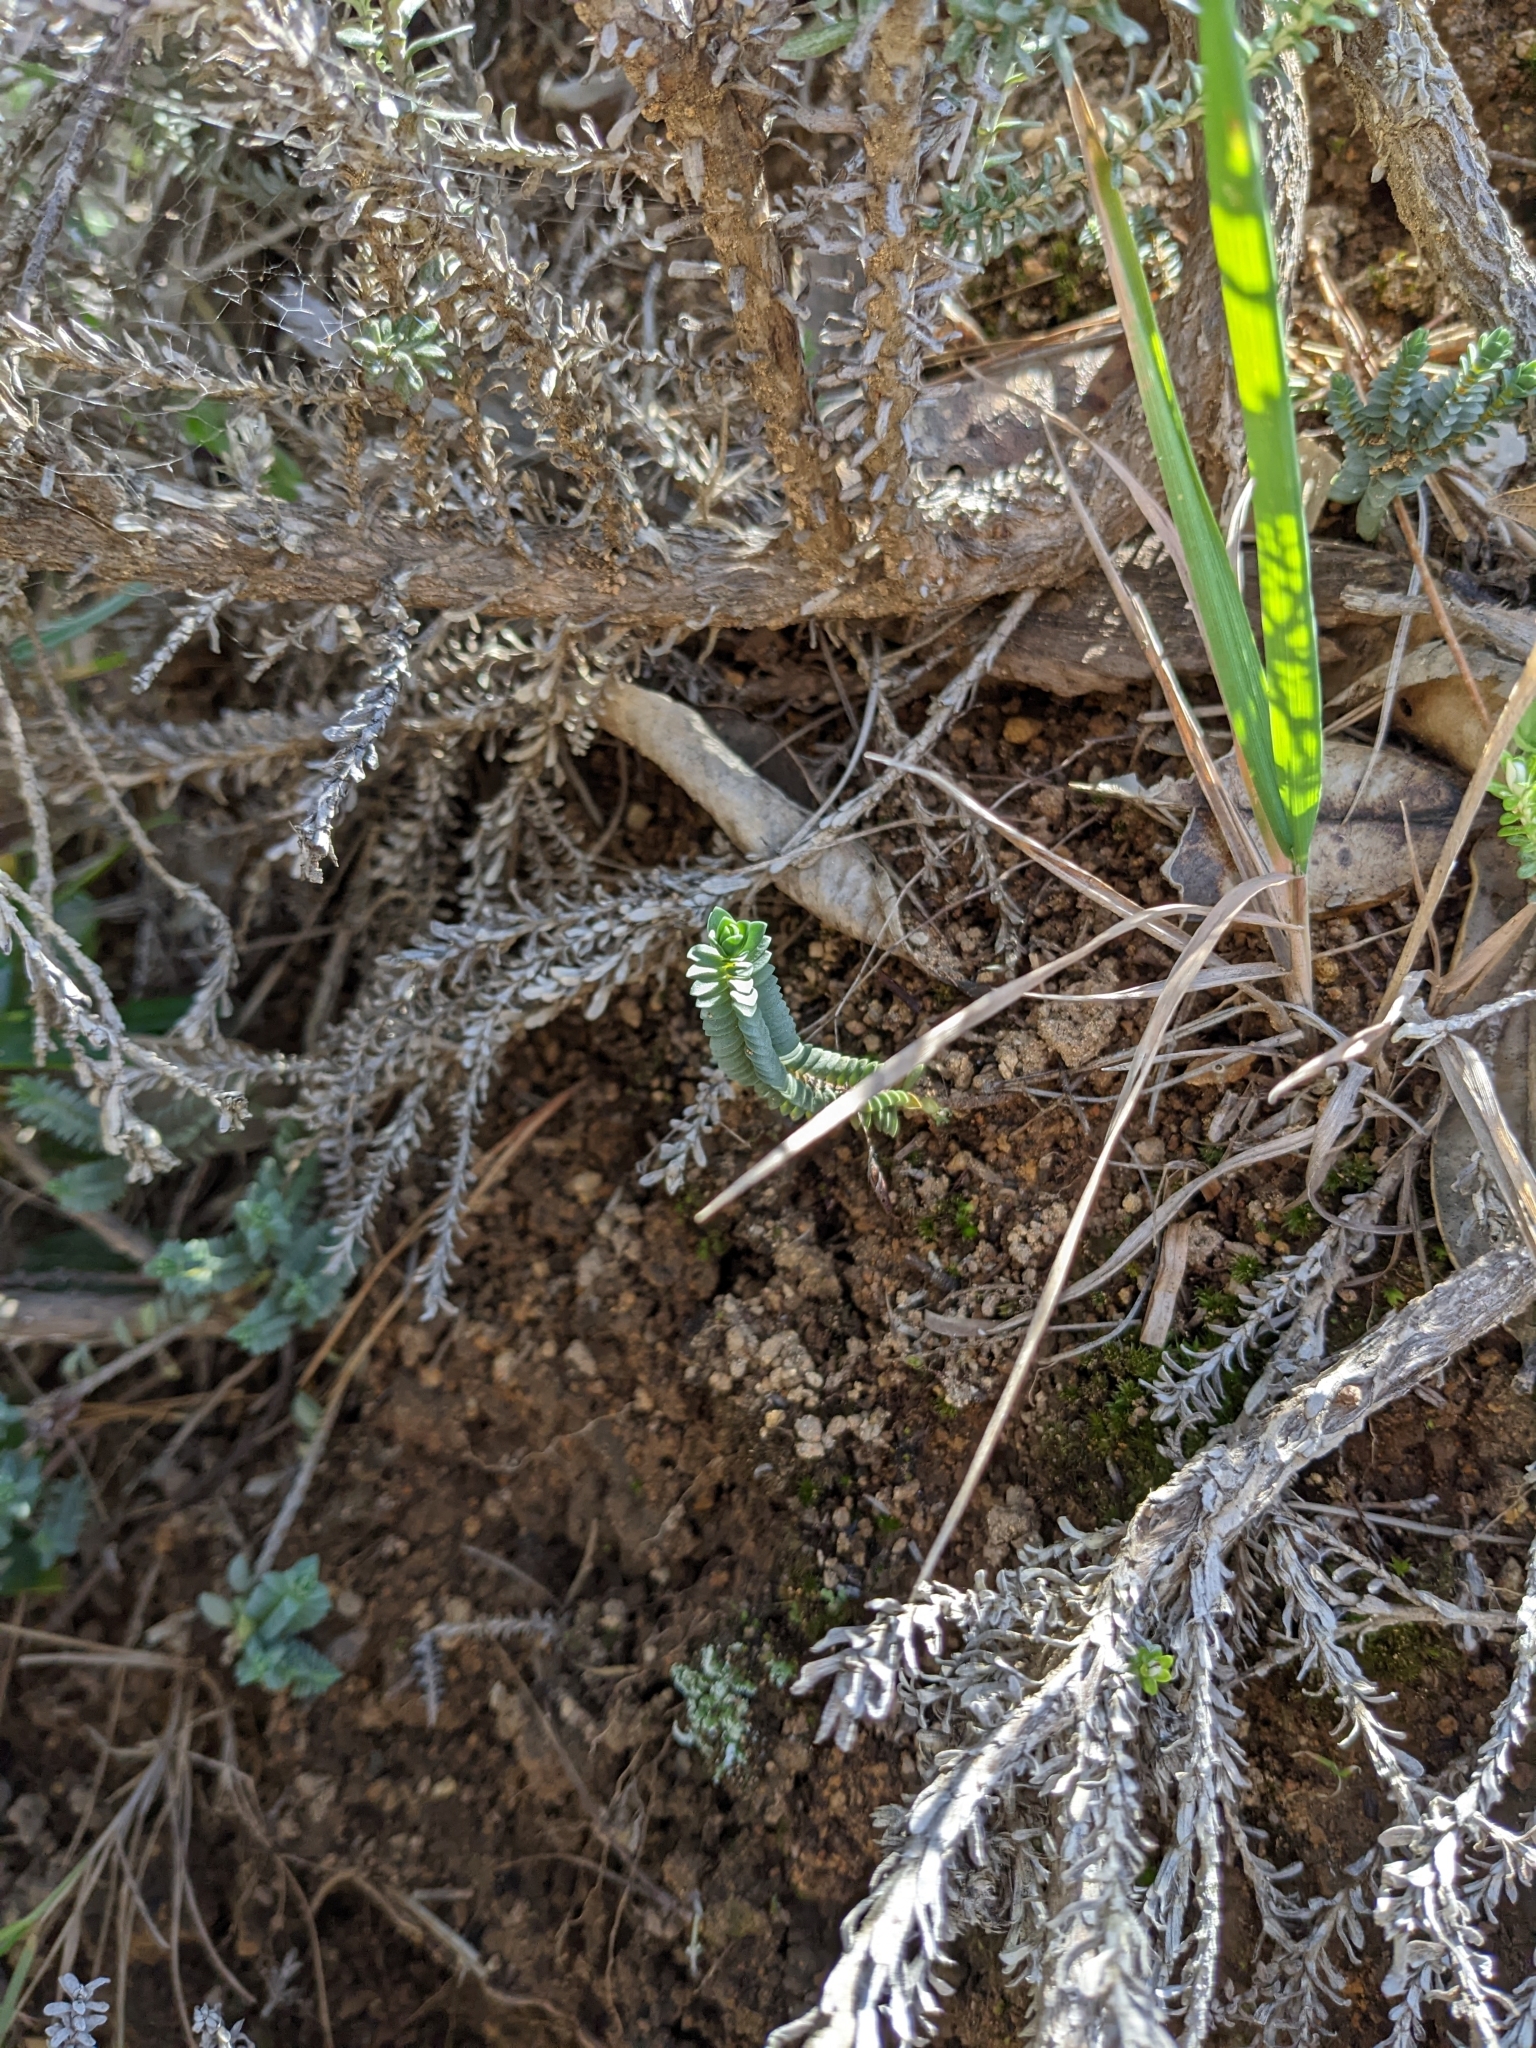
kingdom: Plantae
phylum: Tracheophyta
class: Magnoliopsida
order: Malvales
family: Thymelaeaceae
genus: Pimelea
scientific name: Pimelea prostrata
